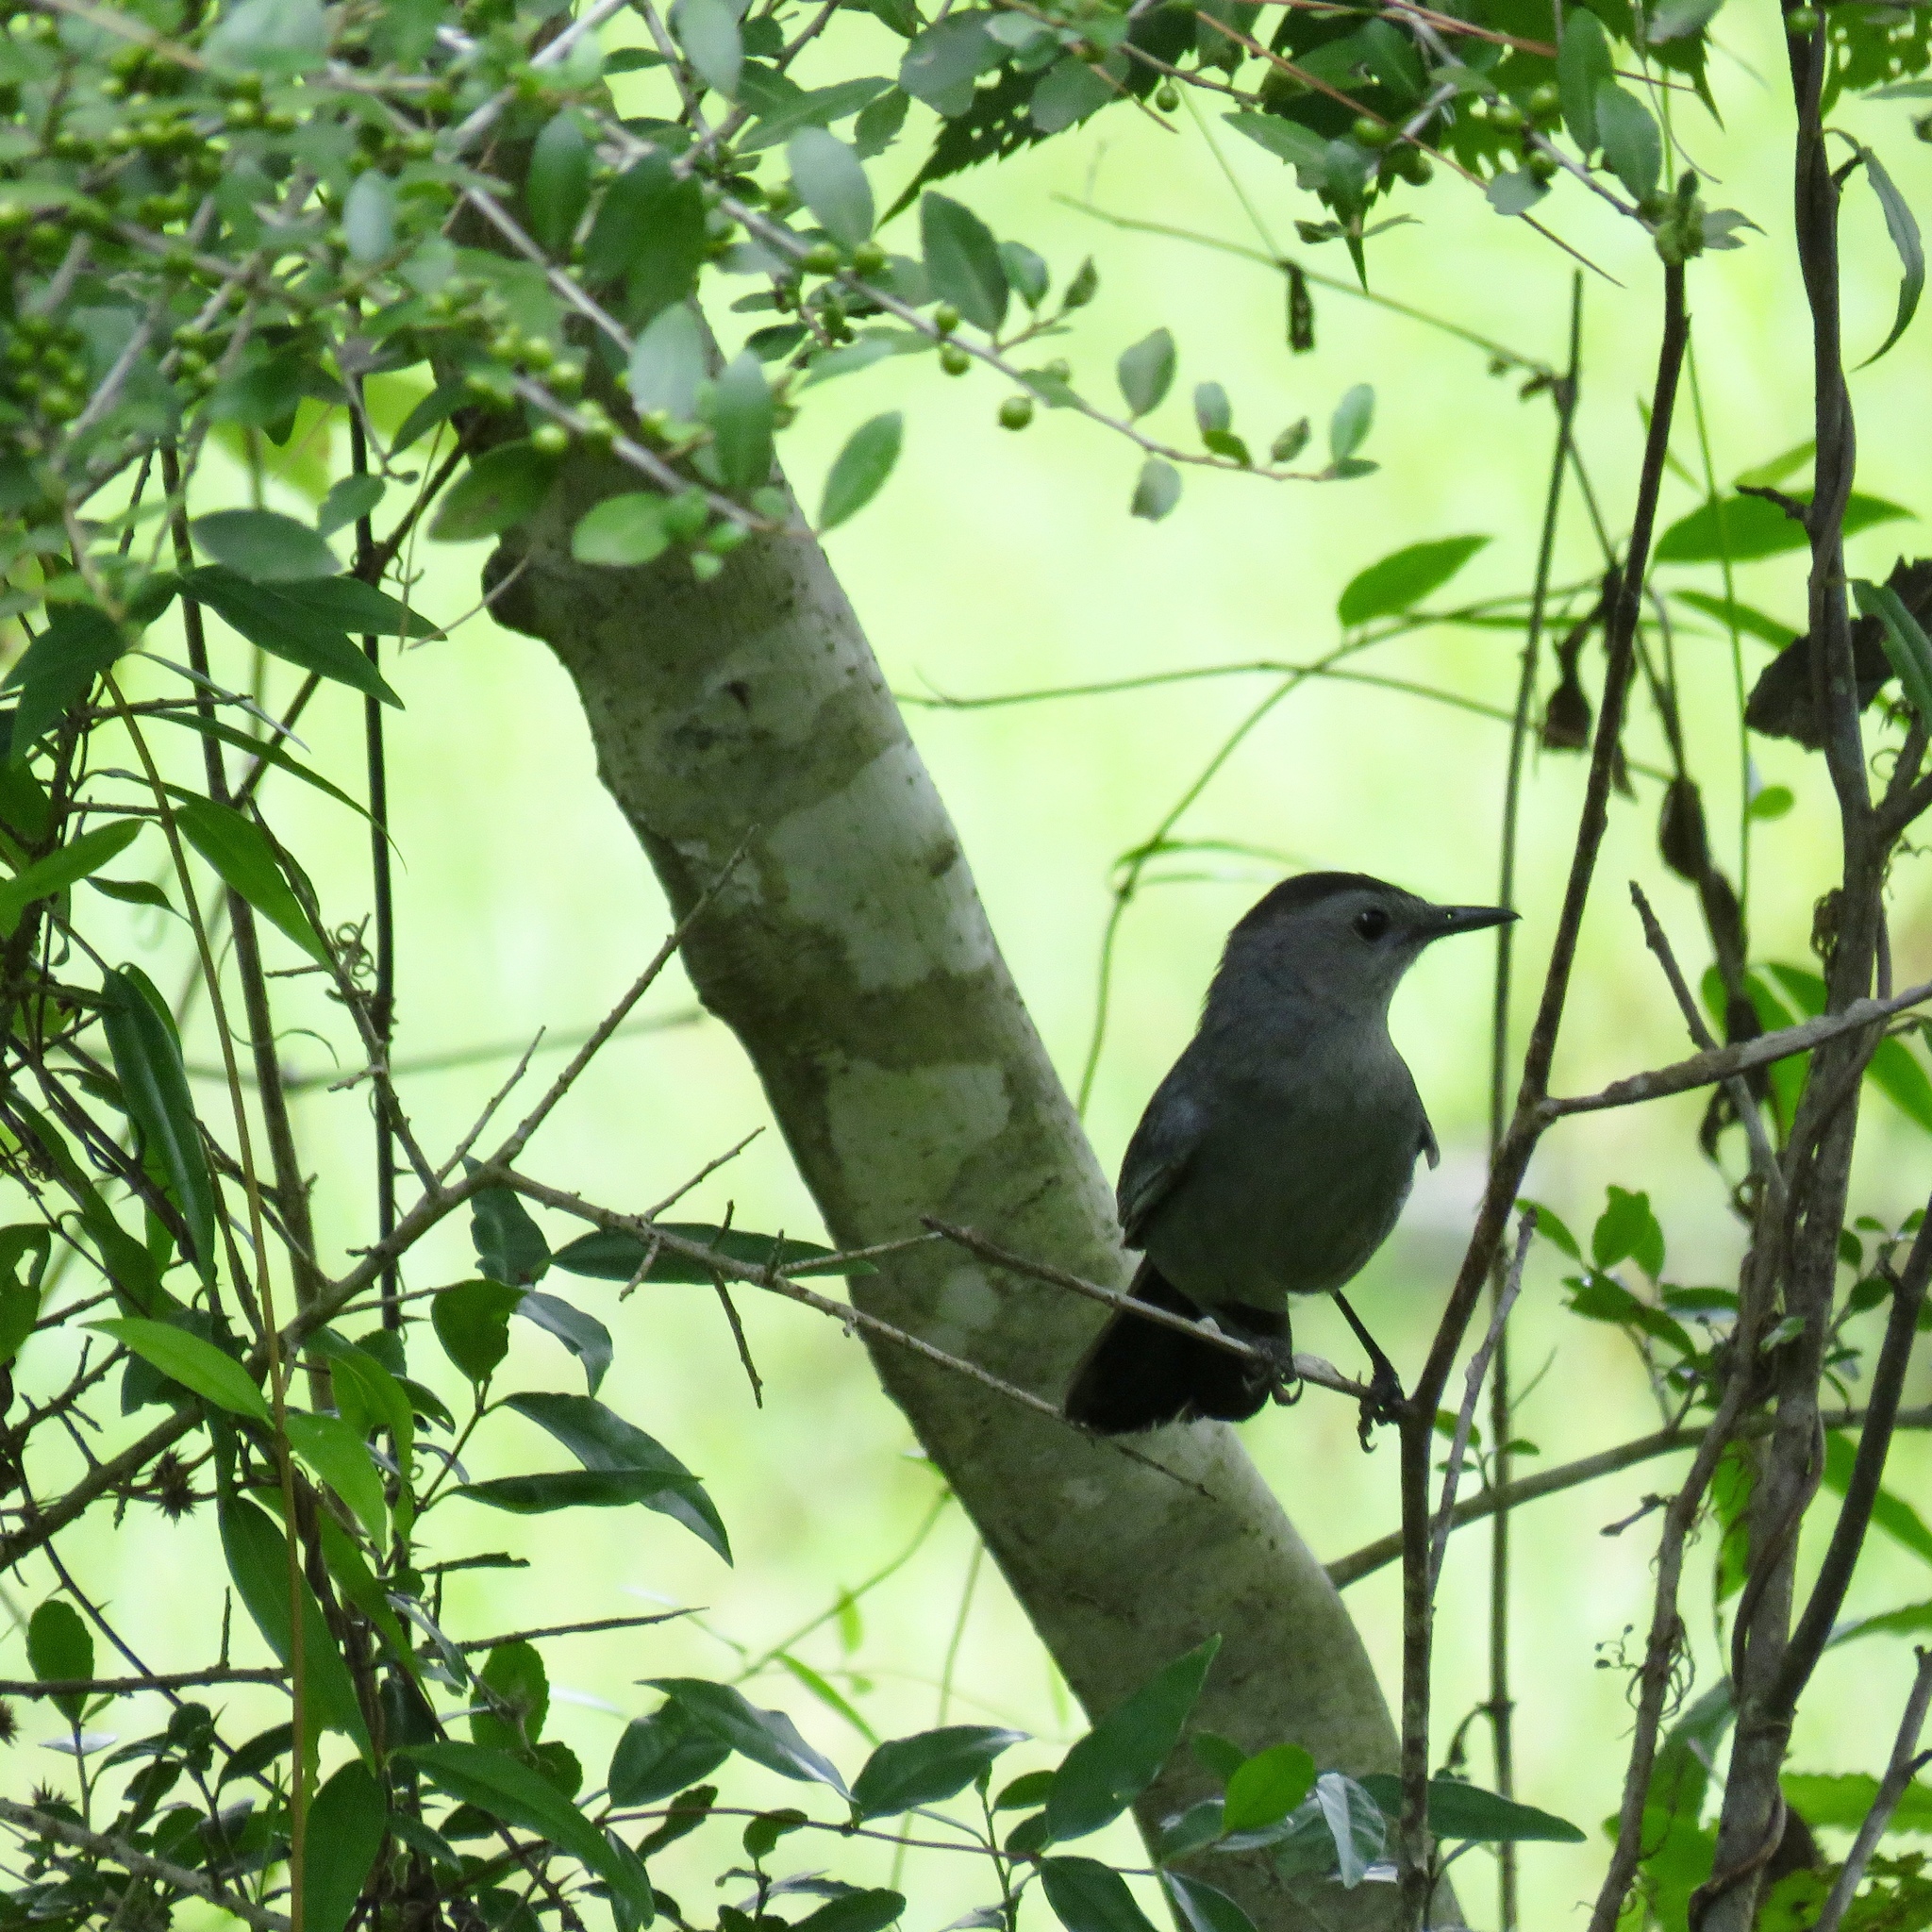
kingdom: Animalia
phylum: Chordata
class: Aves
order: Passeriformes
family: Mimidae
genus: Dumetella
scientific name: Dumetella carolinensis
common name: Gray catbird
